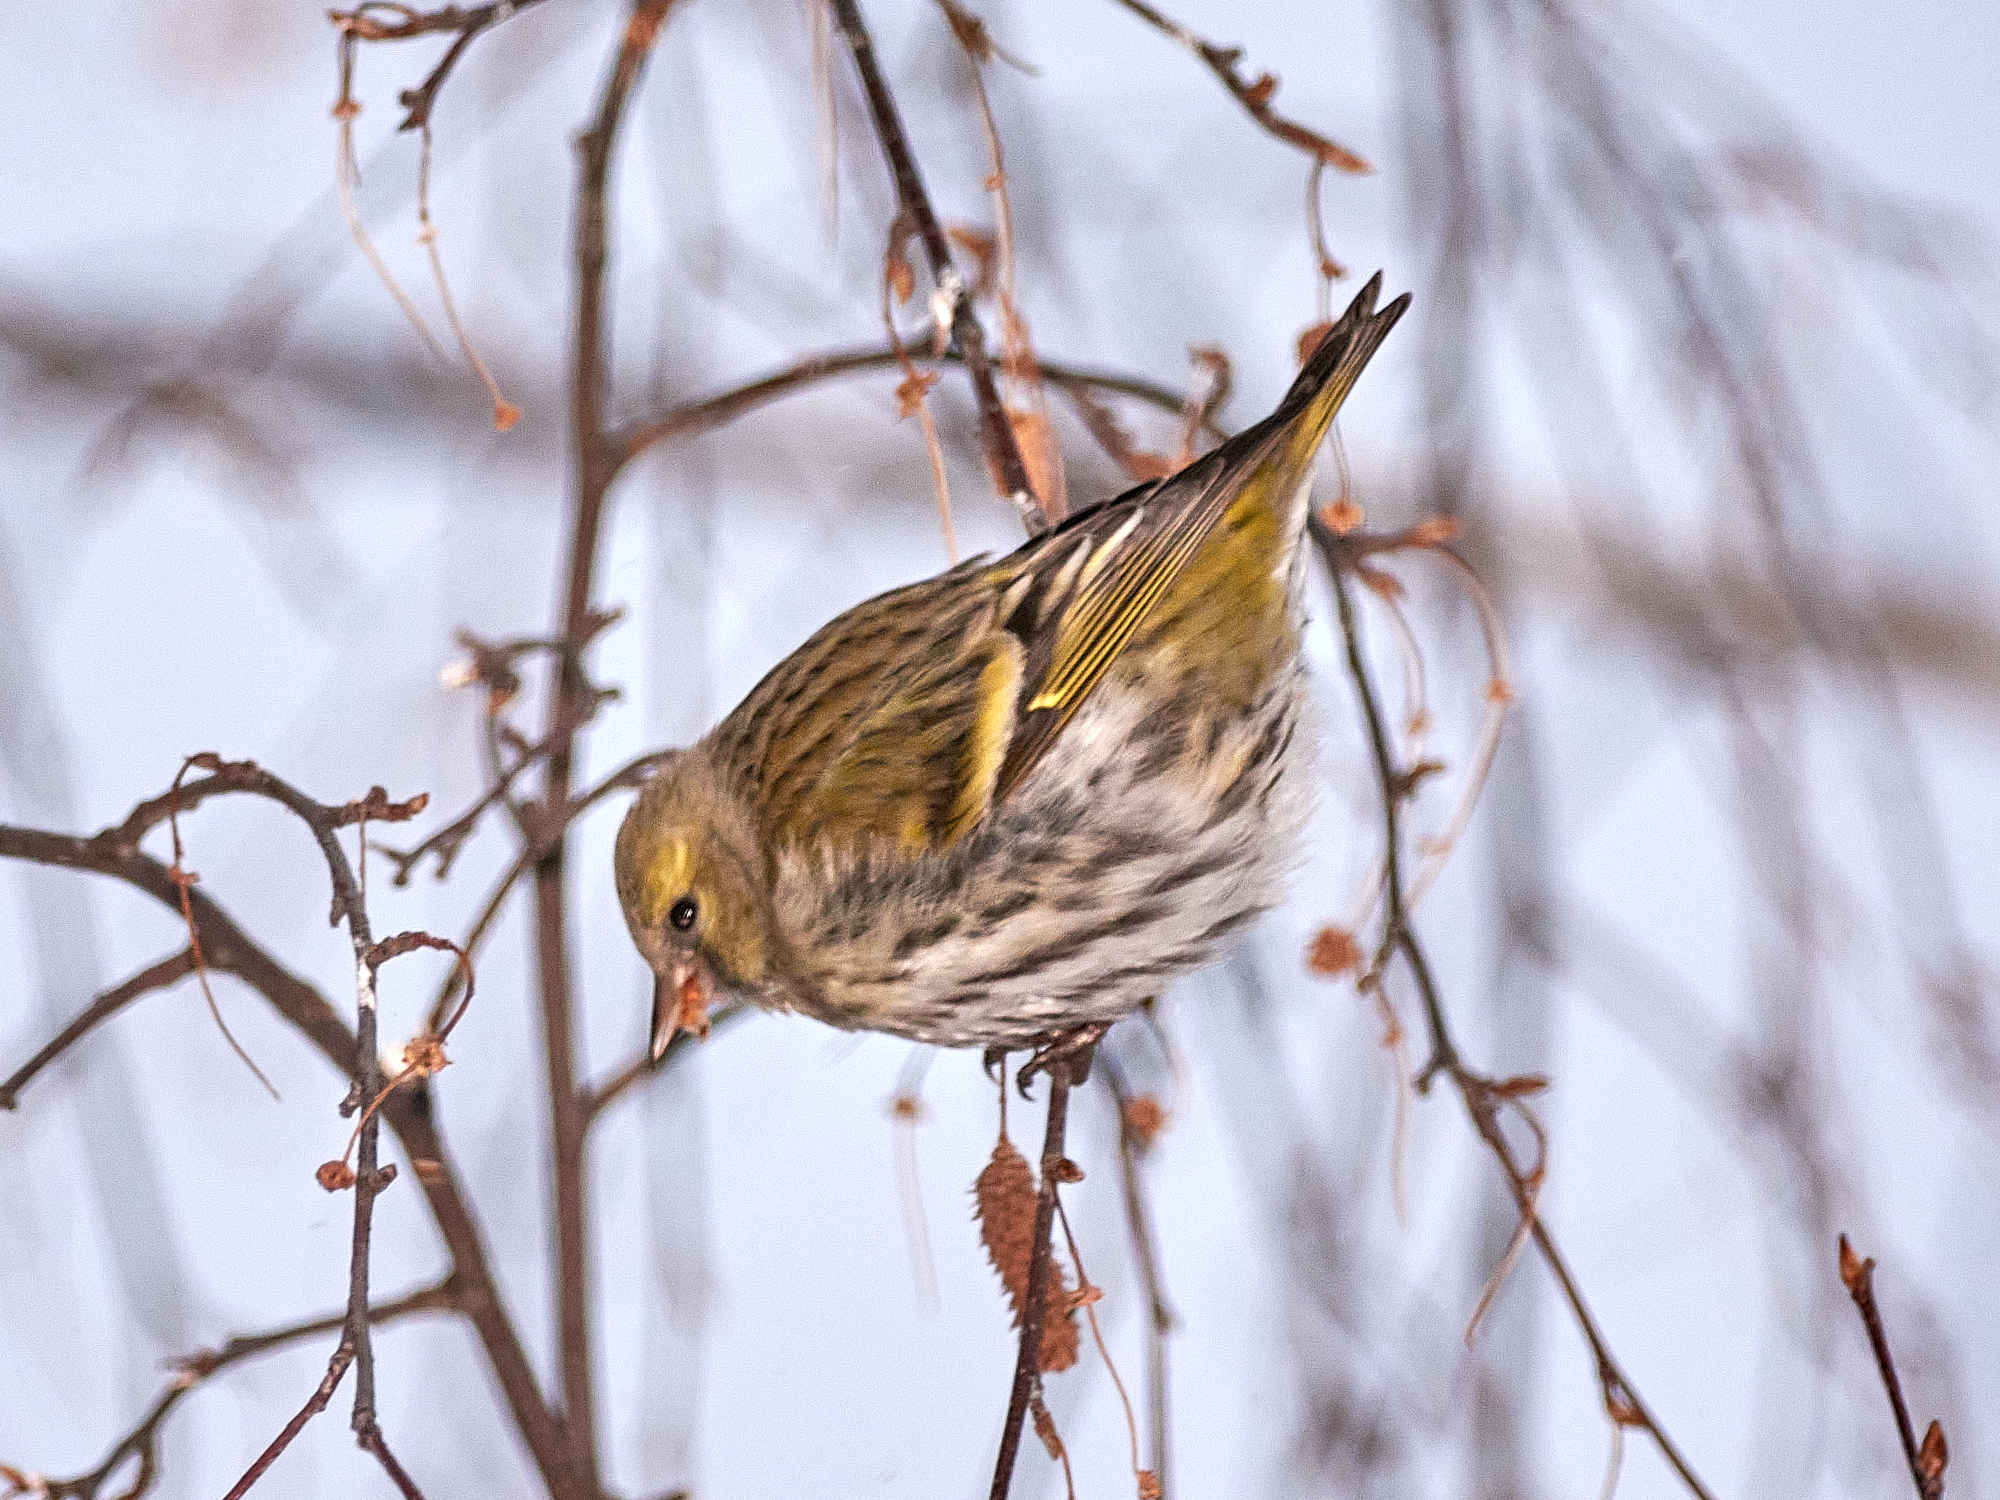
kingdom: Animalia
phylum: Chordata
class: Aves
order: Passeriformes
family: Fringillidae
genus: Spinus
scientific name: Spinus spinus
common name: Eurasian siskin
